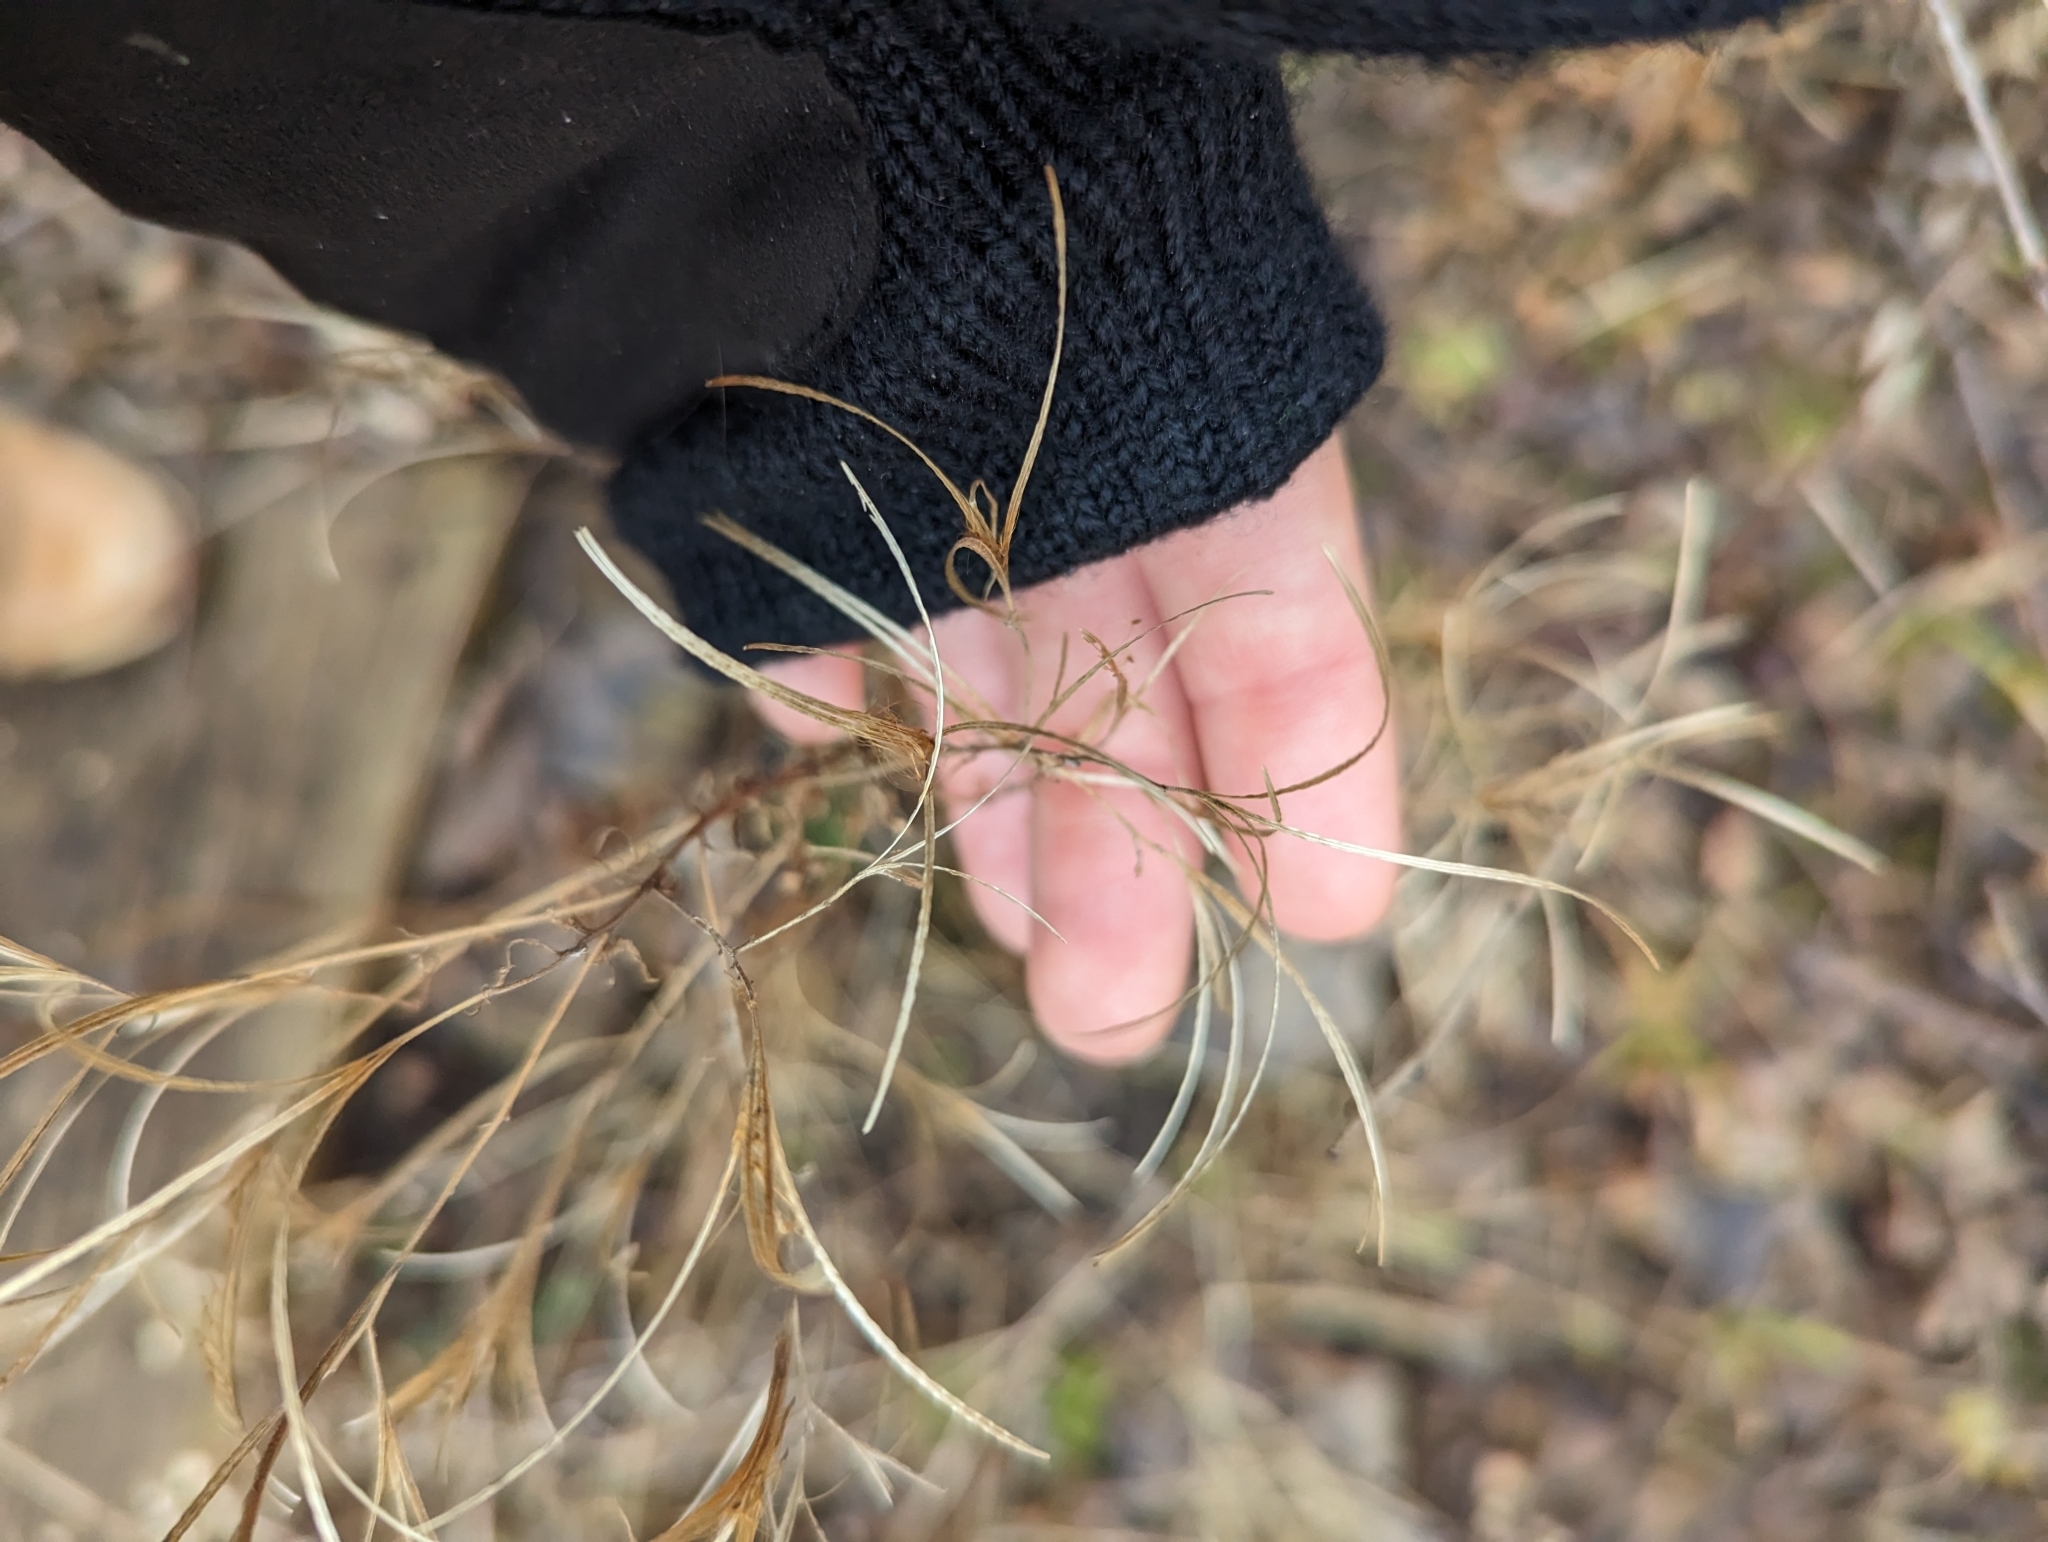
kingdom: Plantae
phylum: Tracheophyta
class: Magnoliopsida
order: Myrtales
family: Onagraceae
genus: Epilobium
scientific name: Epilobium coloratum
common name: Bronze willowherb
